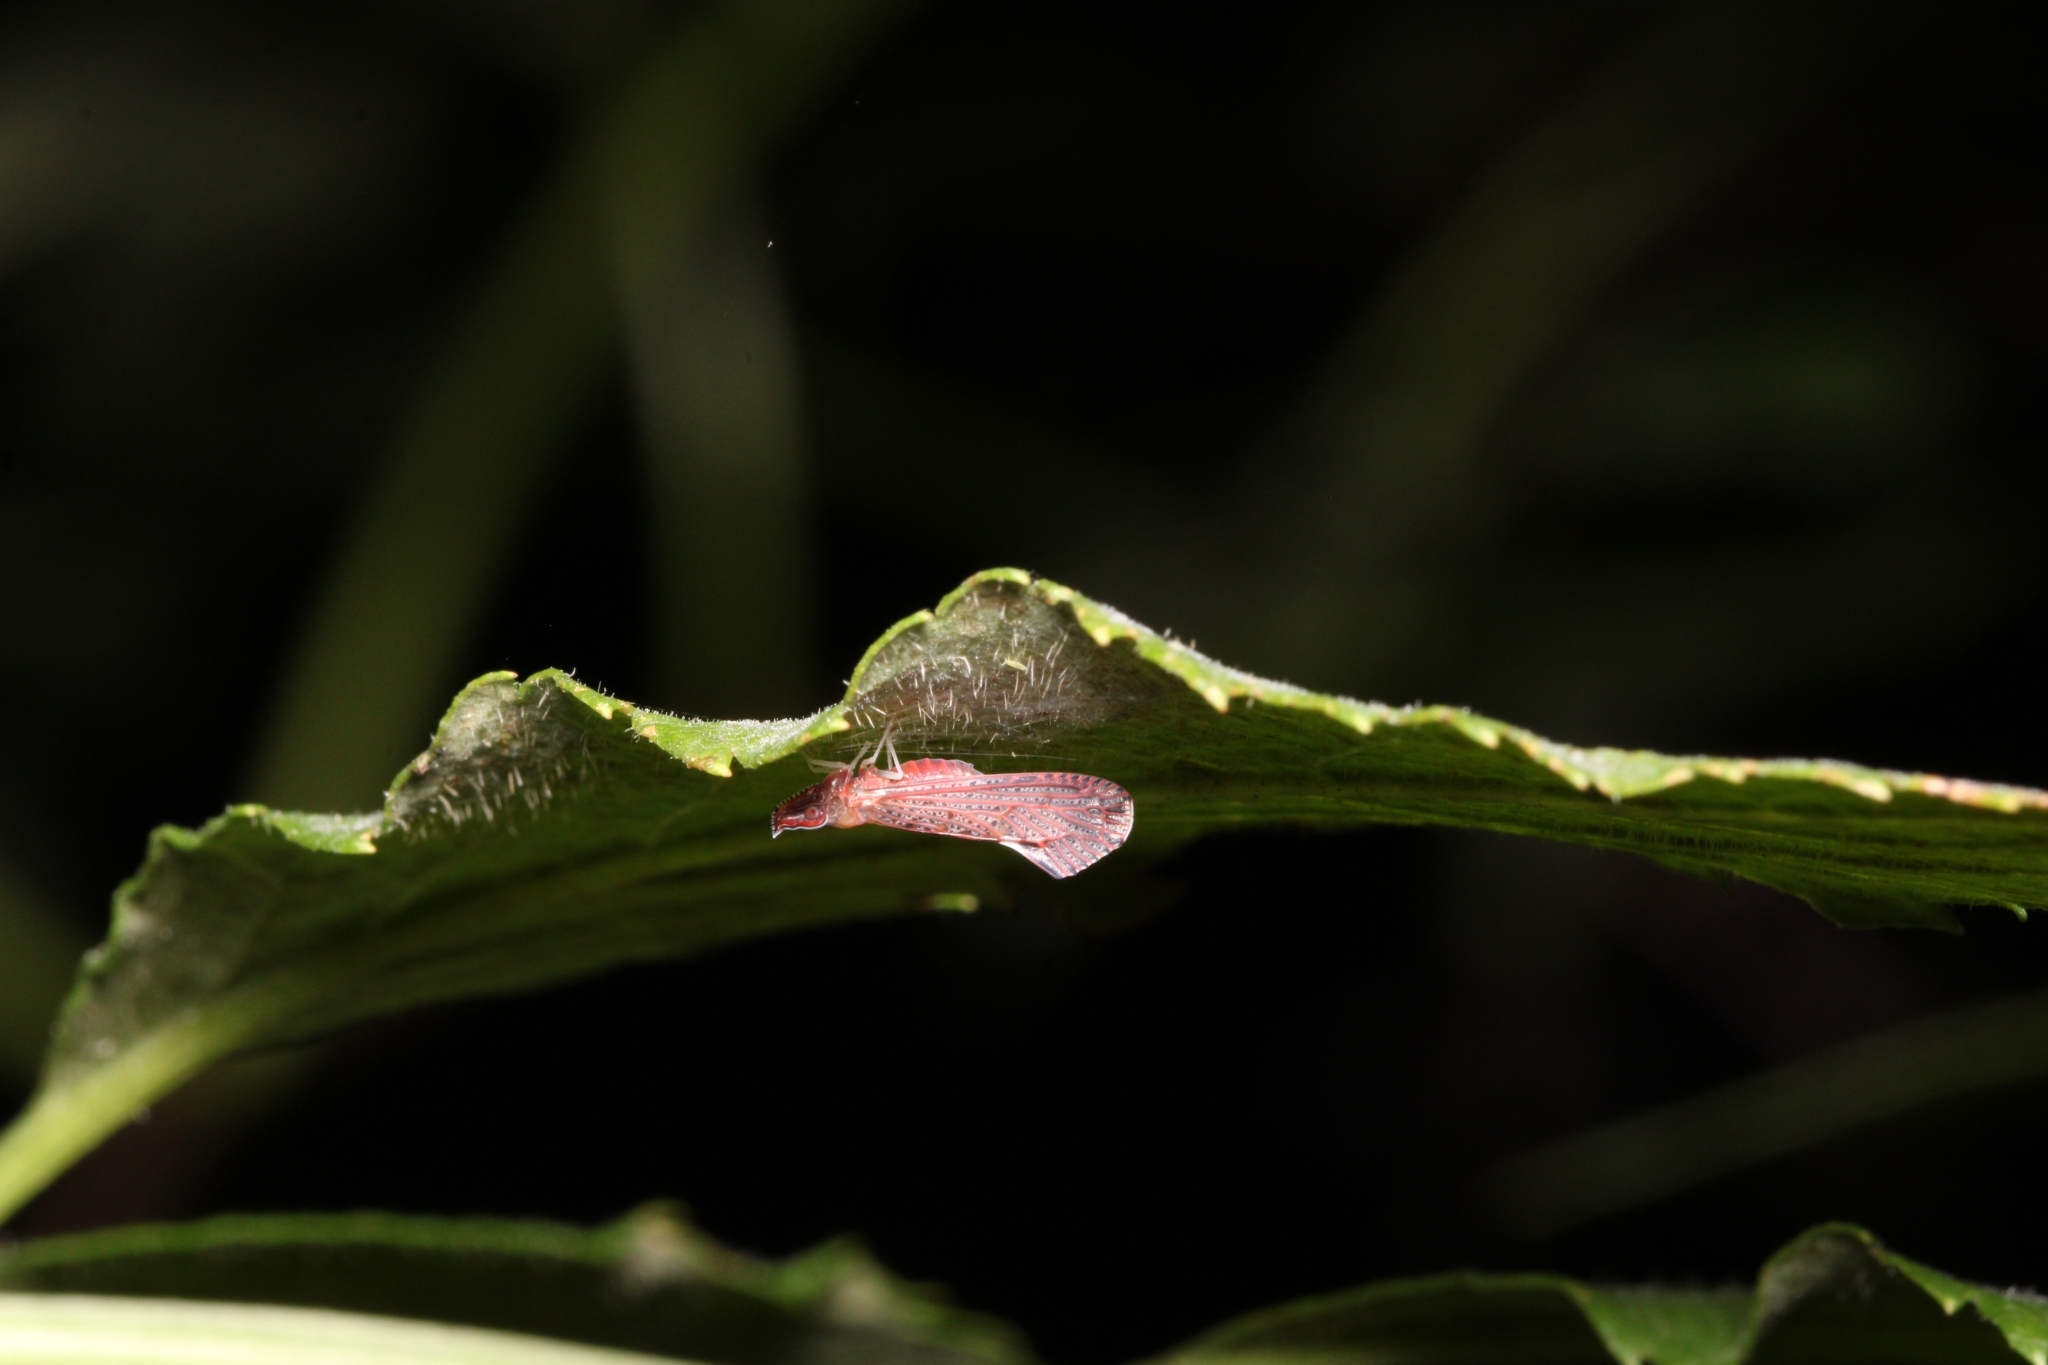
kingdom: Animalia
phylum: Arthropoda
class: Insecta
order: Hemiptera
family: Derbidae
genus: Apache
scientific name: Apache degeeri
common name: Red-fanned planthopper
